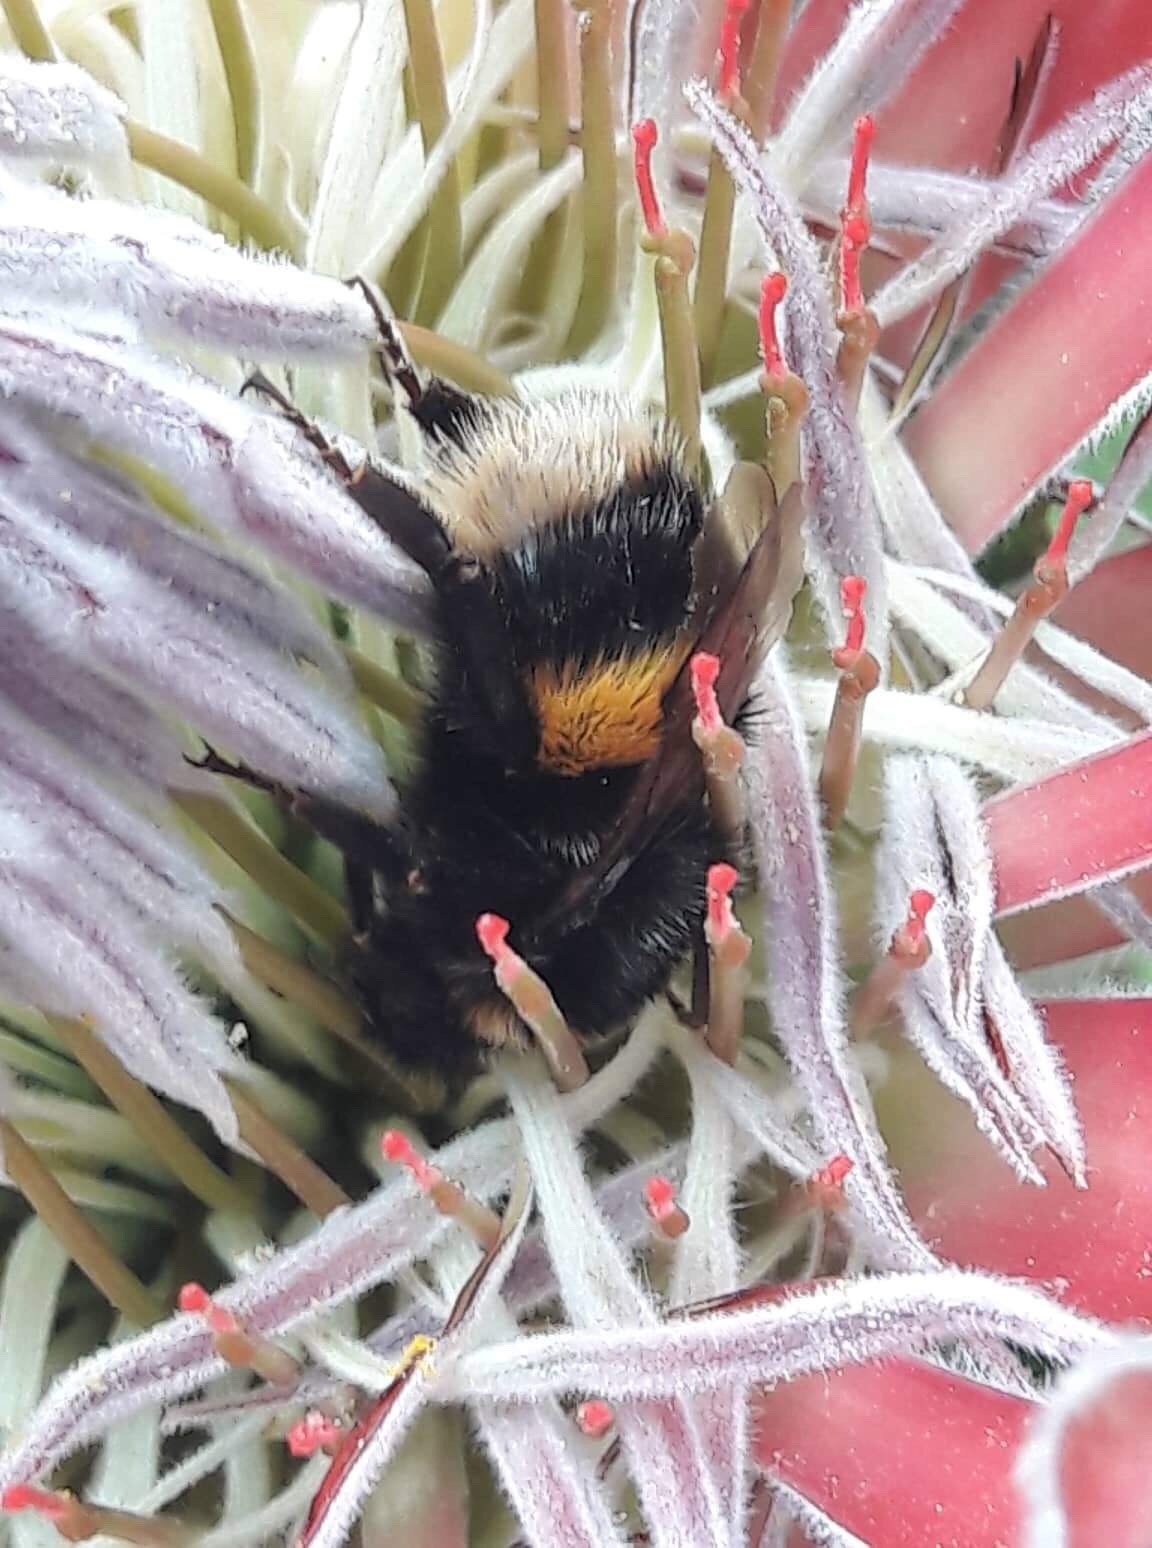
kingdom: Animalia
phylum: Arthropoda
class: Insecta
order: Hymenoptera
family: Apidae
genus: Bombus
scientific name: Bombus terrestris
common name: Buff-tailed bumblebee
